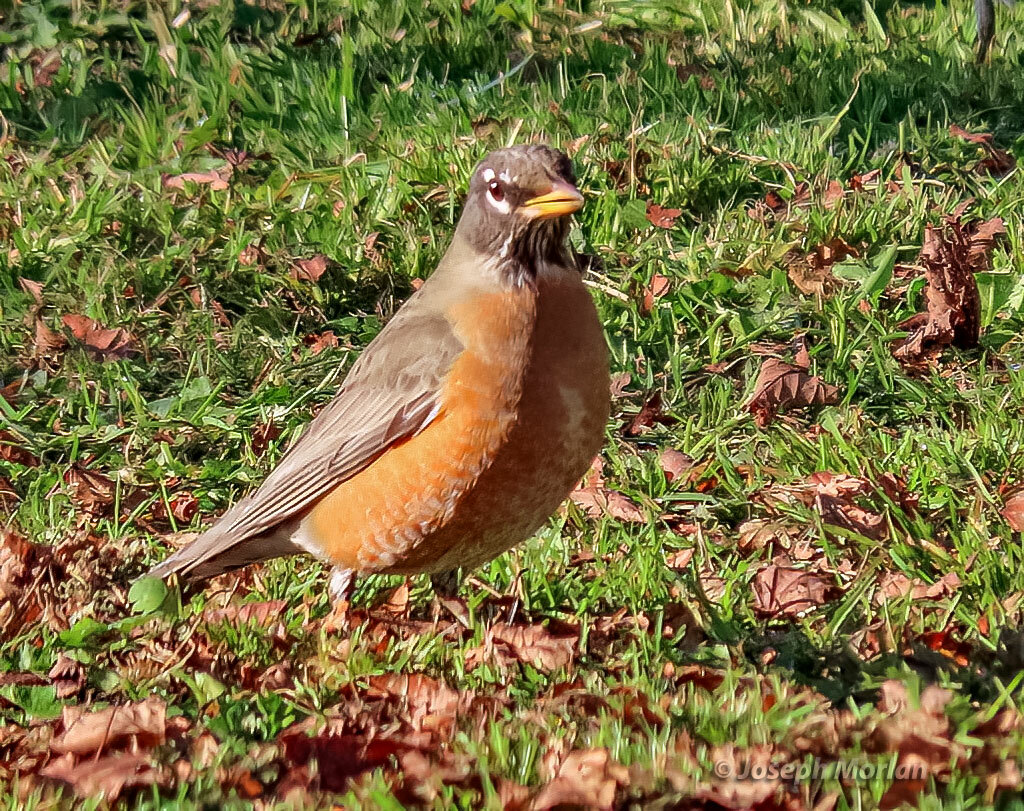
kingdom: Animalia
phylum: Chordata
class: Aves
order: Passeriformes
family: Turdidae
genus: Turdus
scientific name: Turdus migratorius
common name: American robin
